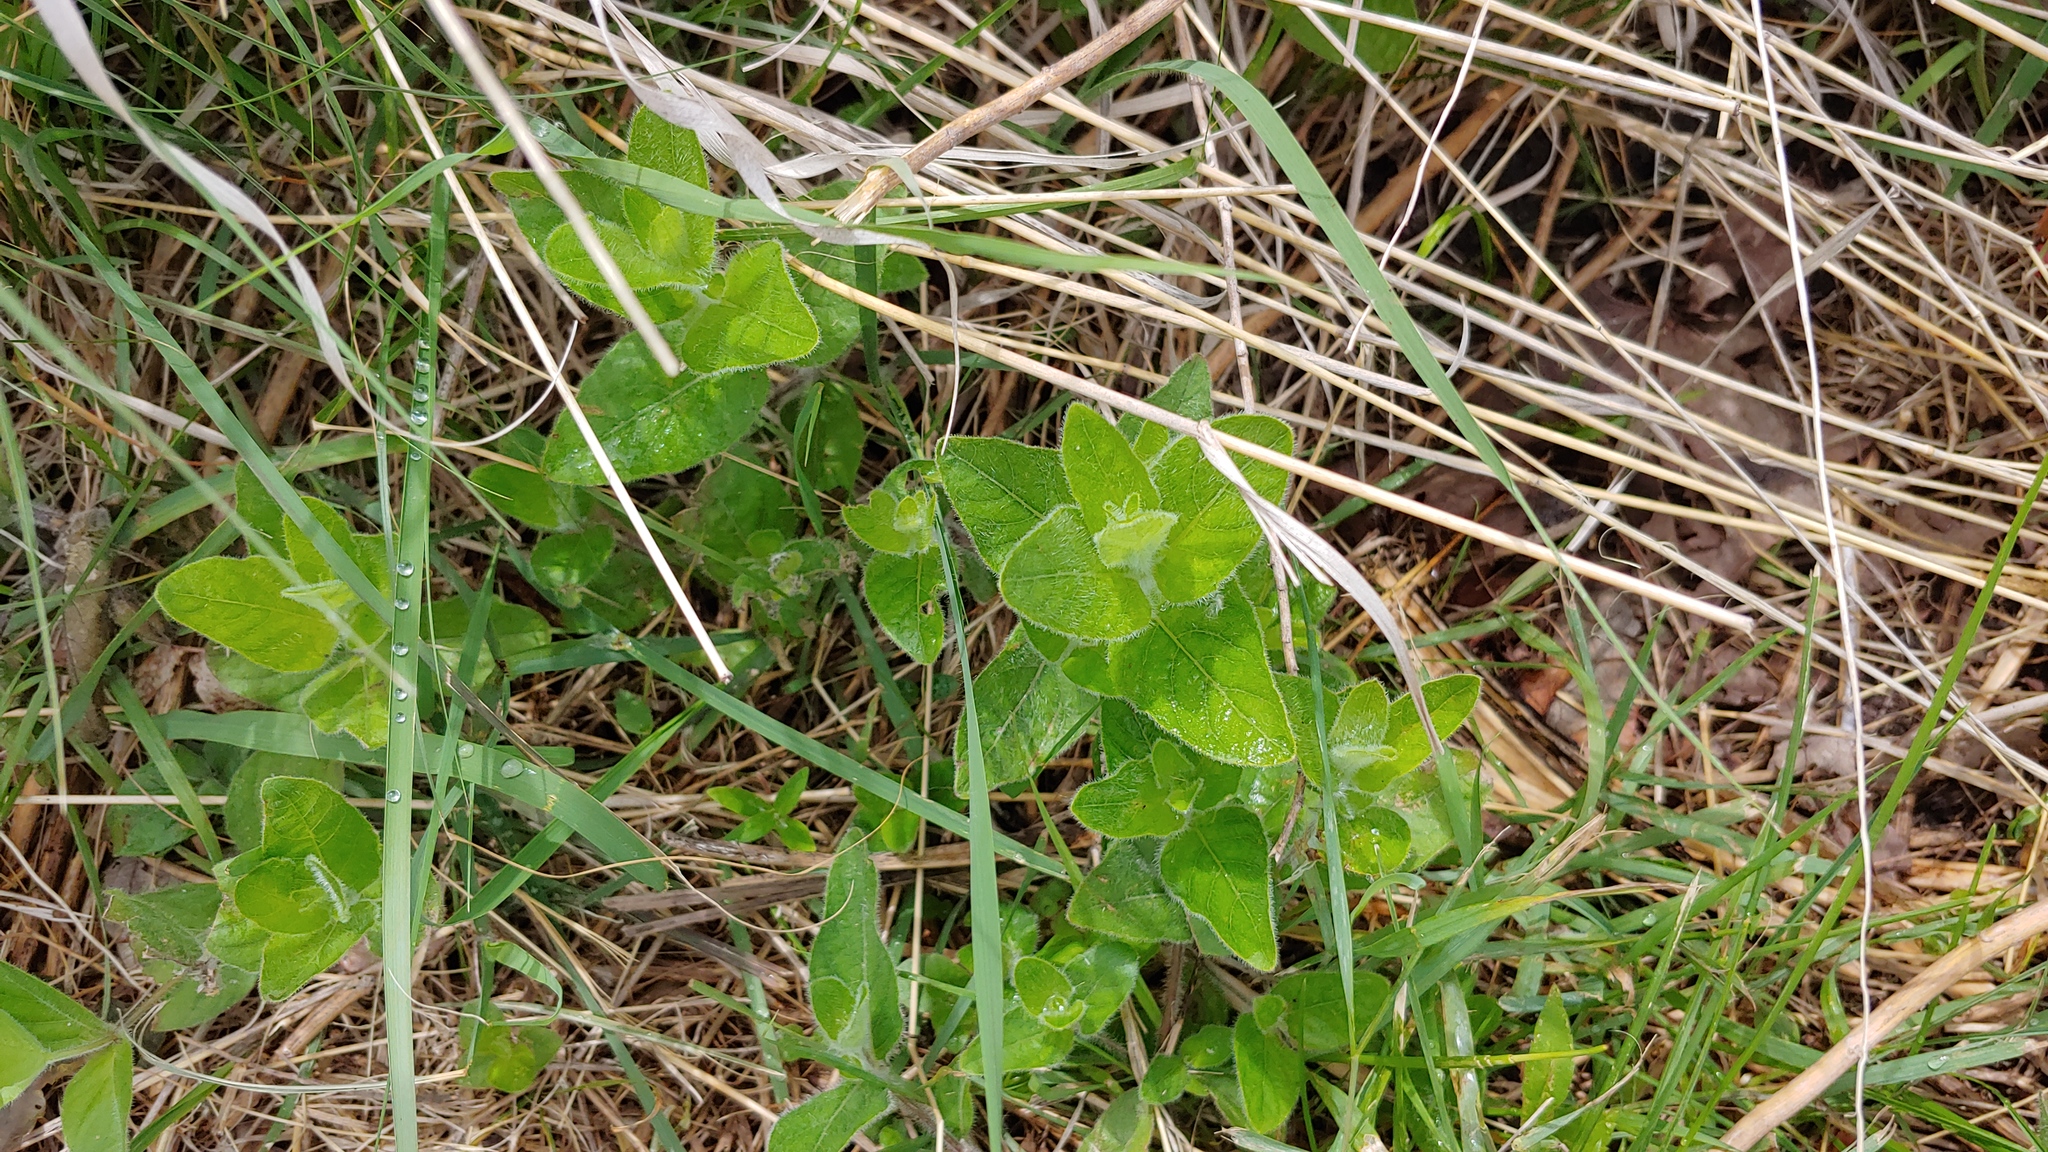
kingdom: Plantae
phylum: Tracheophyta
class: Magnoliopsida
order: Lamiales
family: Acanthaceae
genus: Ruellia
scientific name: Ruellia humilis
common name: Fringe-leaf ruellia
